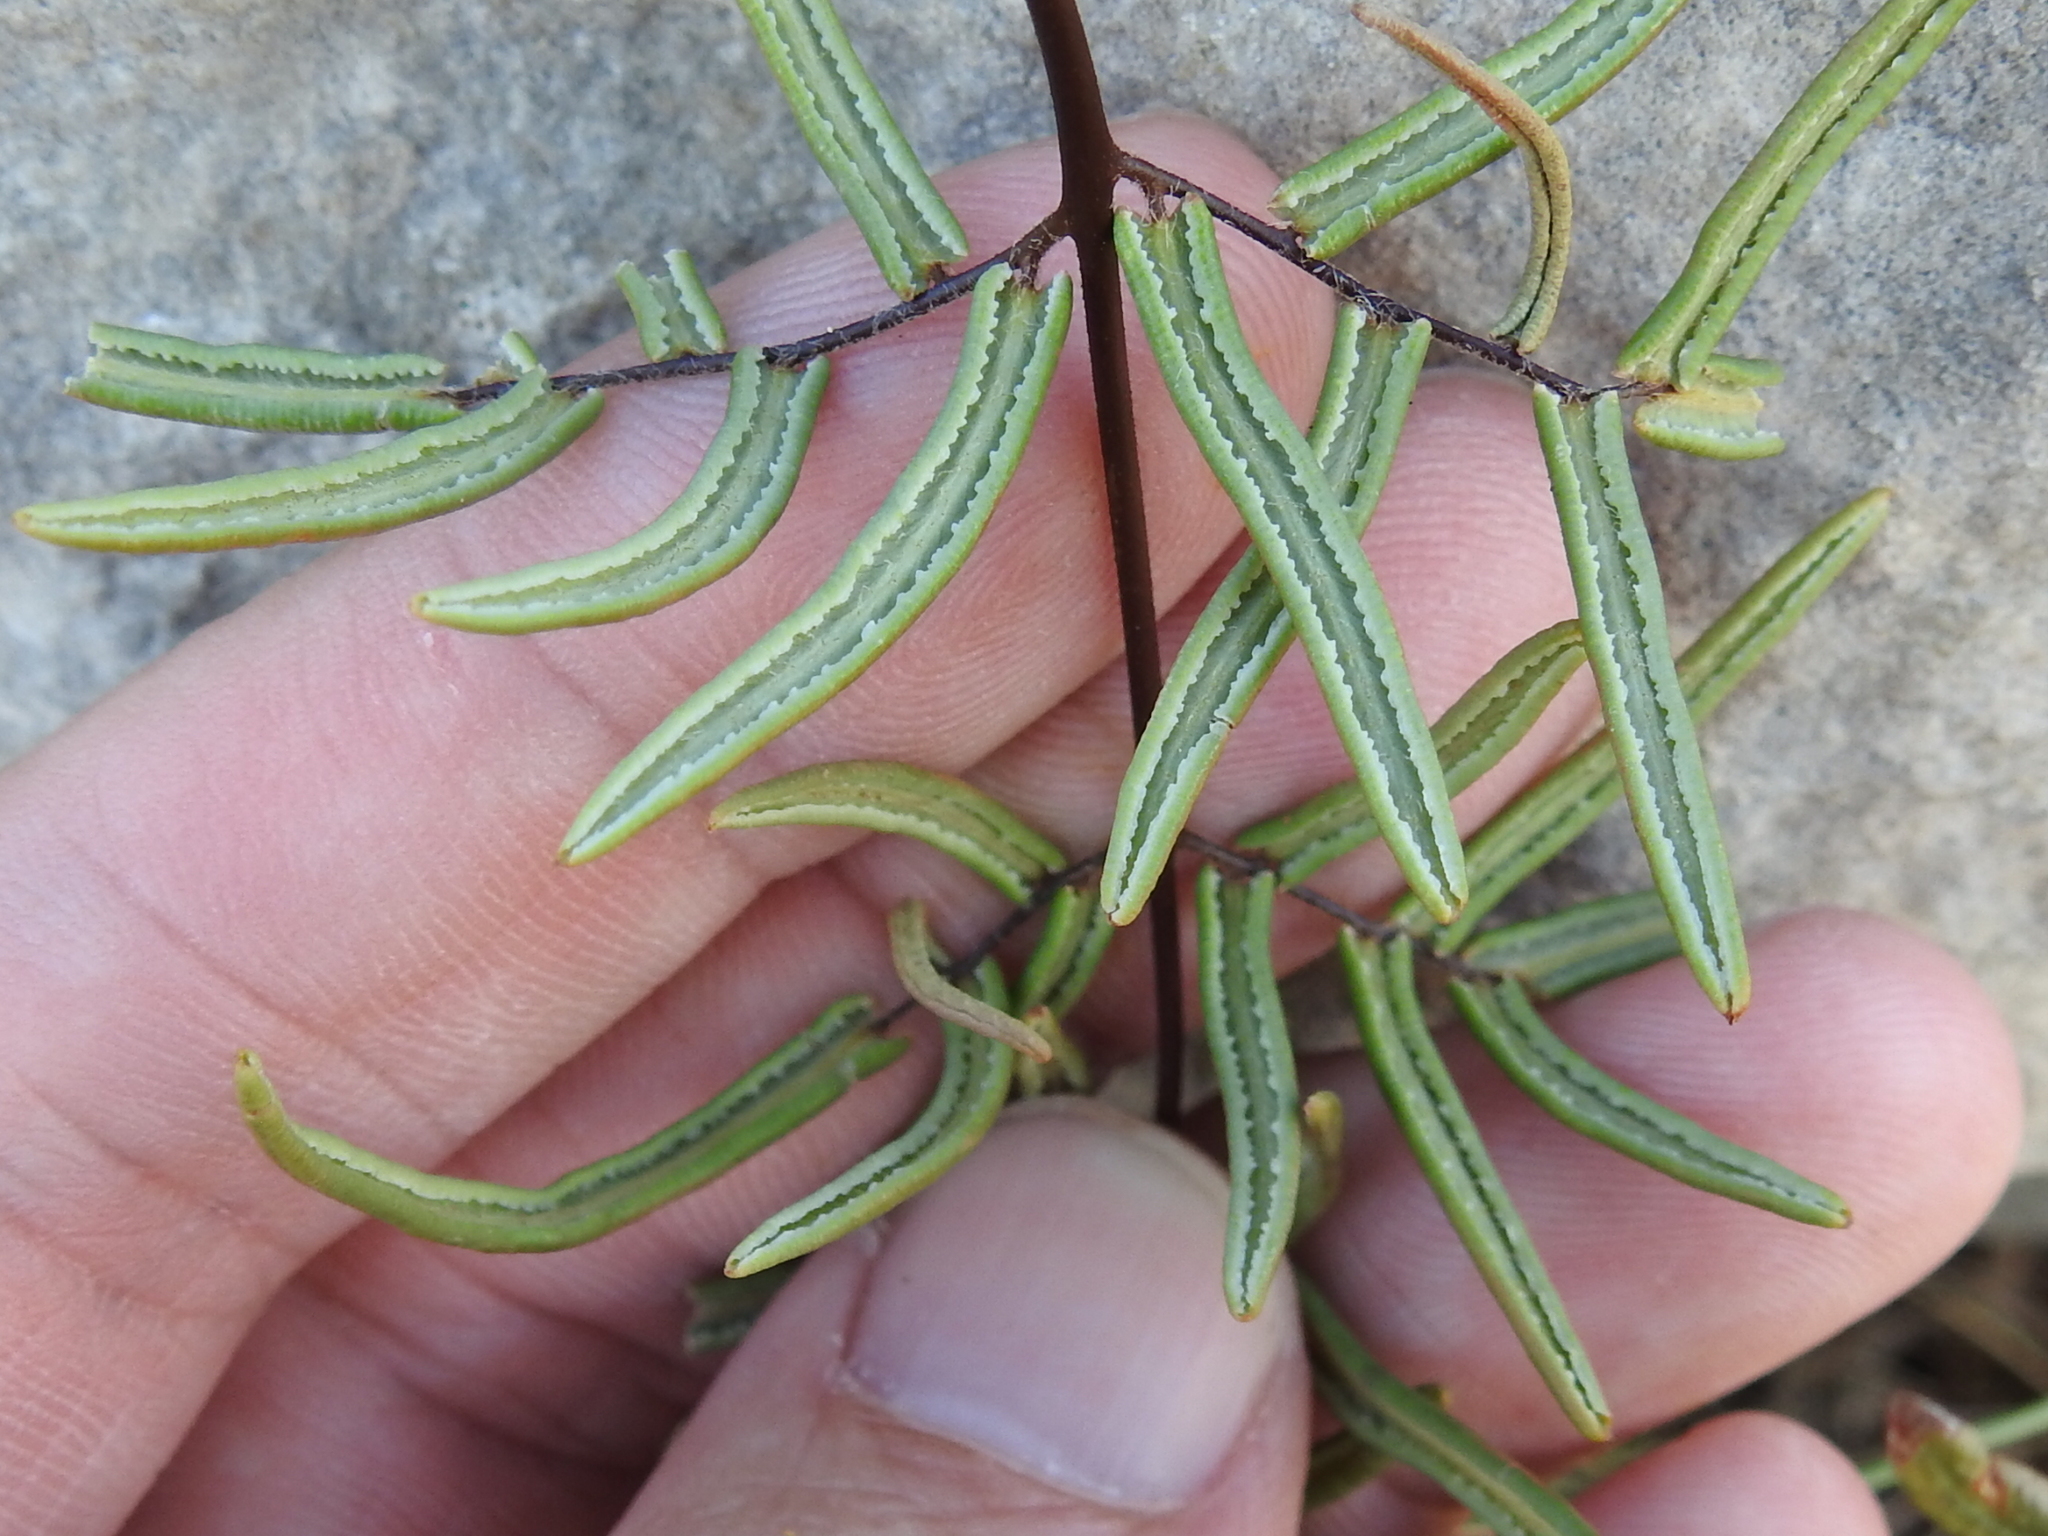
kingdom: Plantae
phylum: Tracheophyta
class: Polypodiopsida
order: Polypodiales
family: Pteridaceae
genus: Pellaea
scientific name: Pellaea atropurpurea
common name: Hairy cliffbrake
